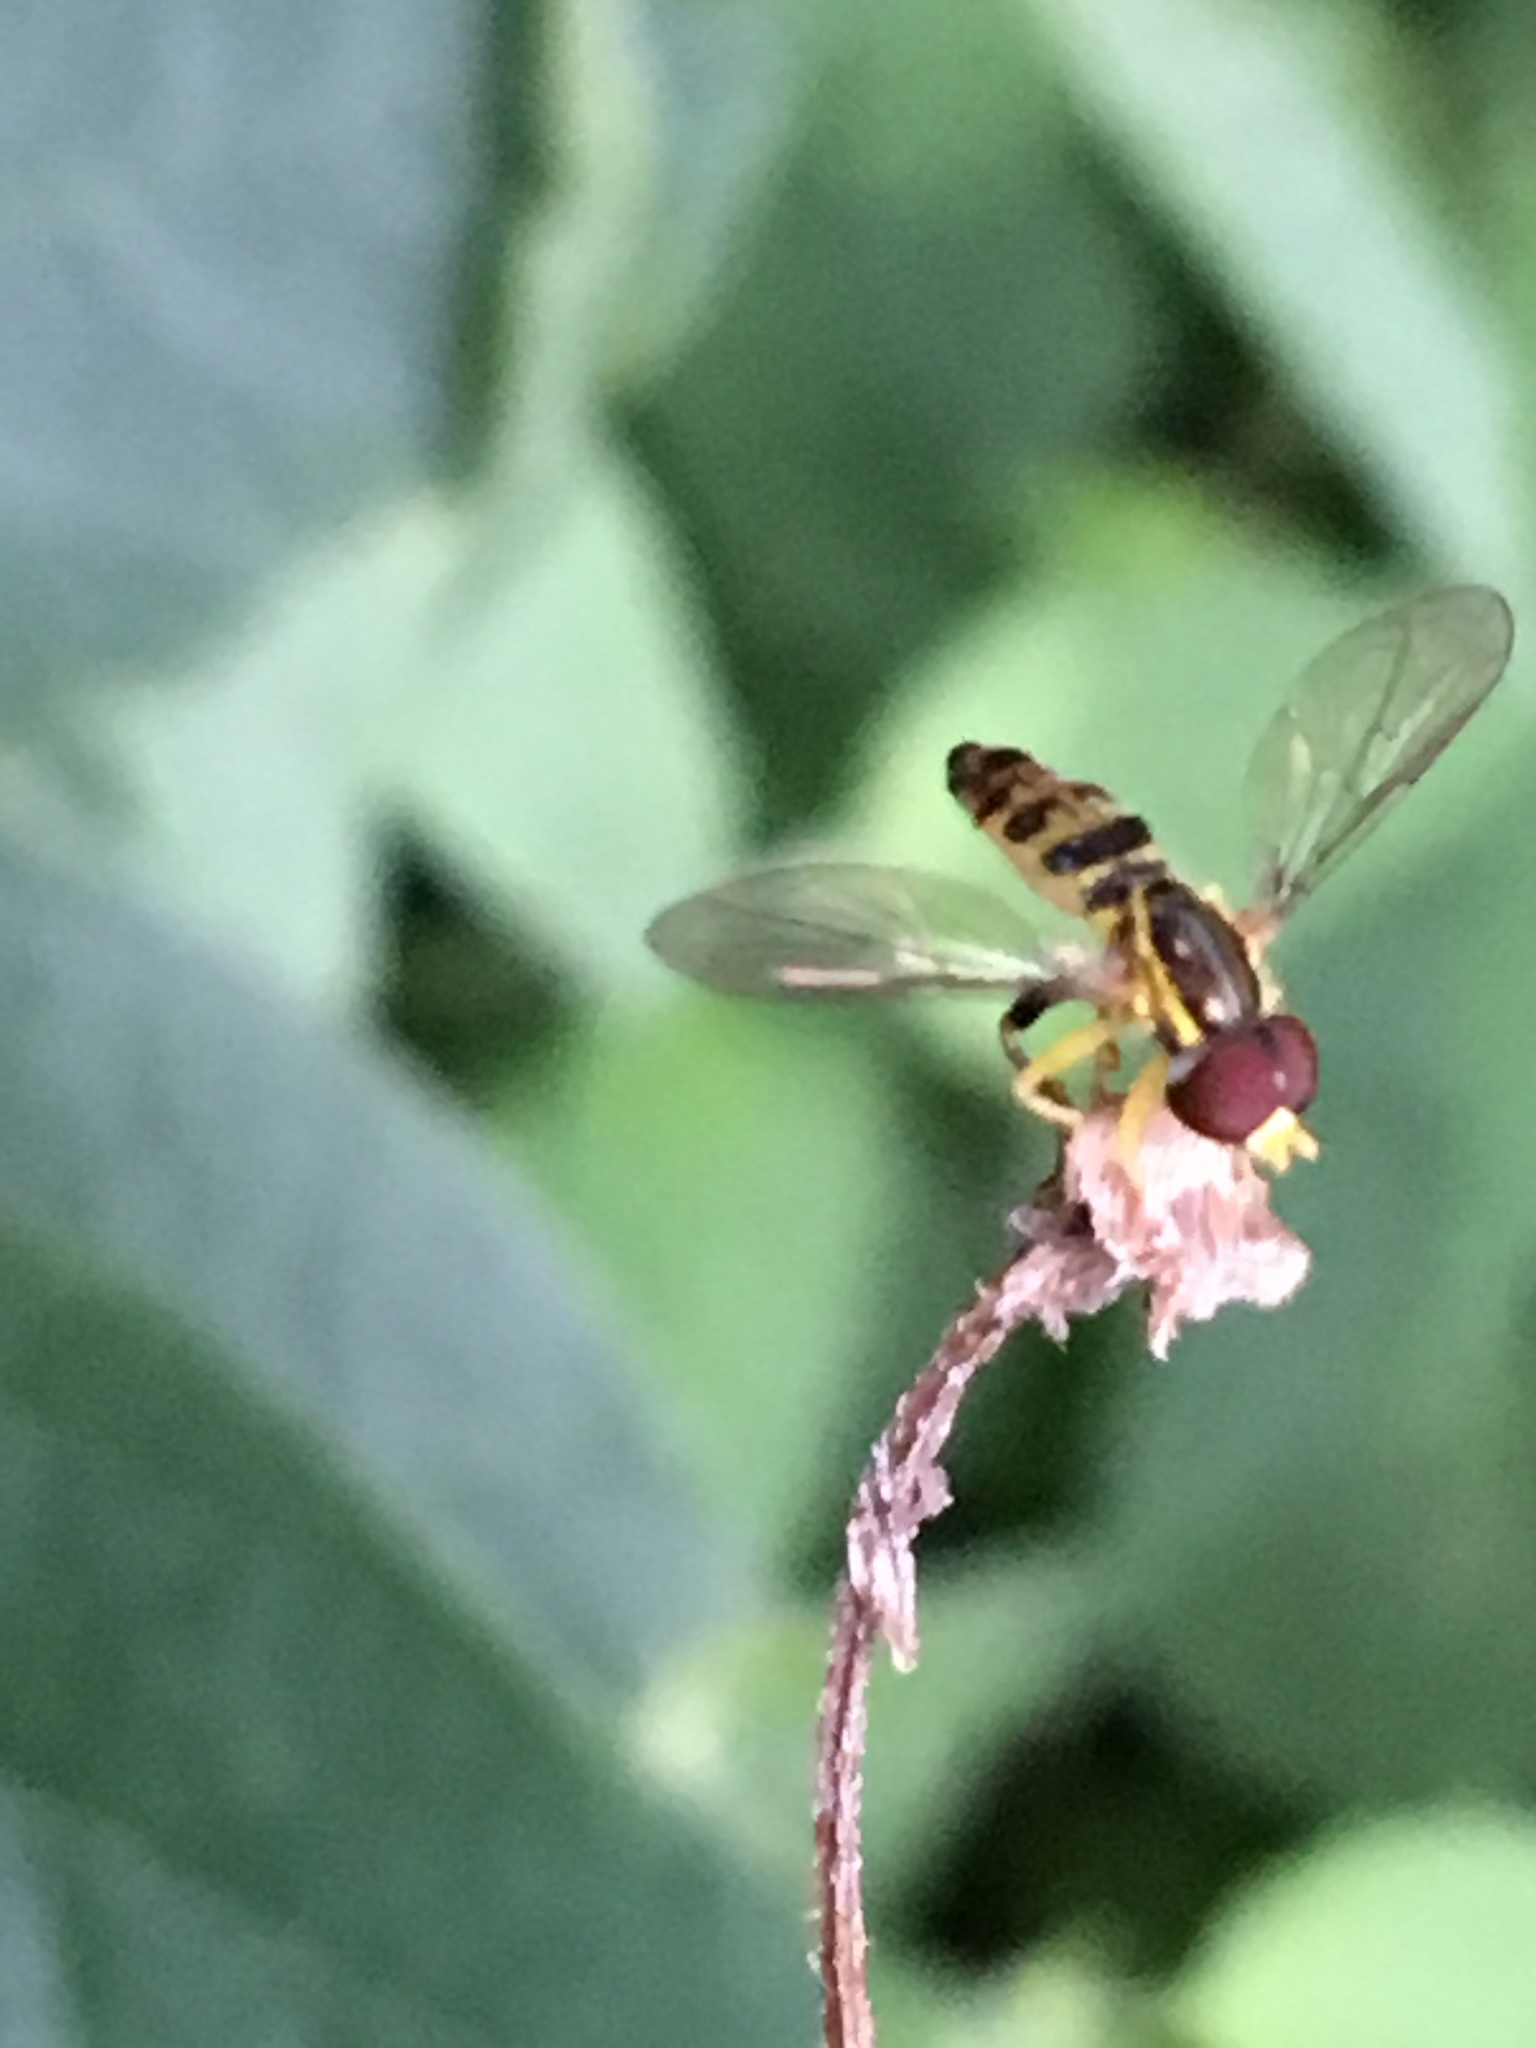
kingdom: Animalia
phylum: Arthropoda
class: Insecta
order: Diptera
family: Syrphidae
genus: Toxomerus
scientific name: Toxomerus geminatus
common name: Eastern calligrapher
